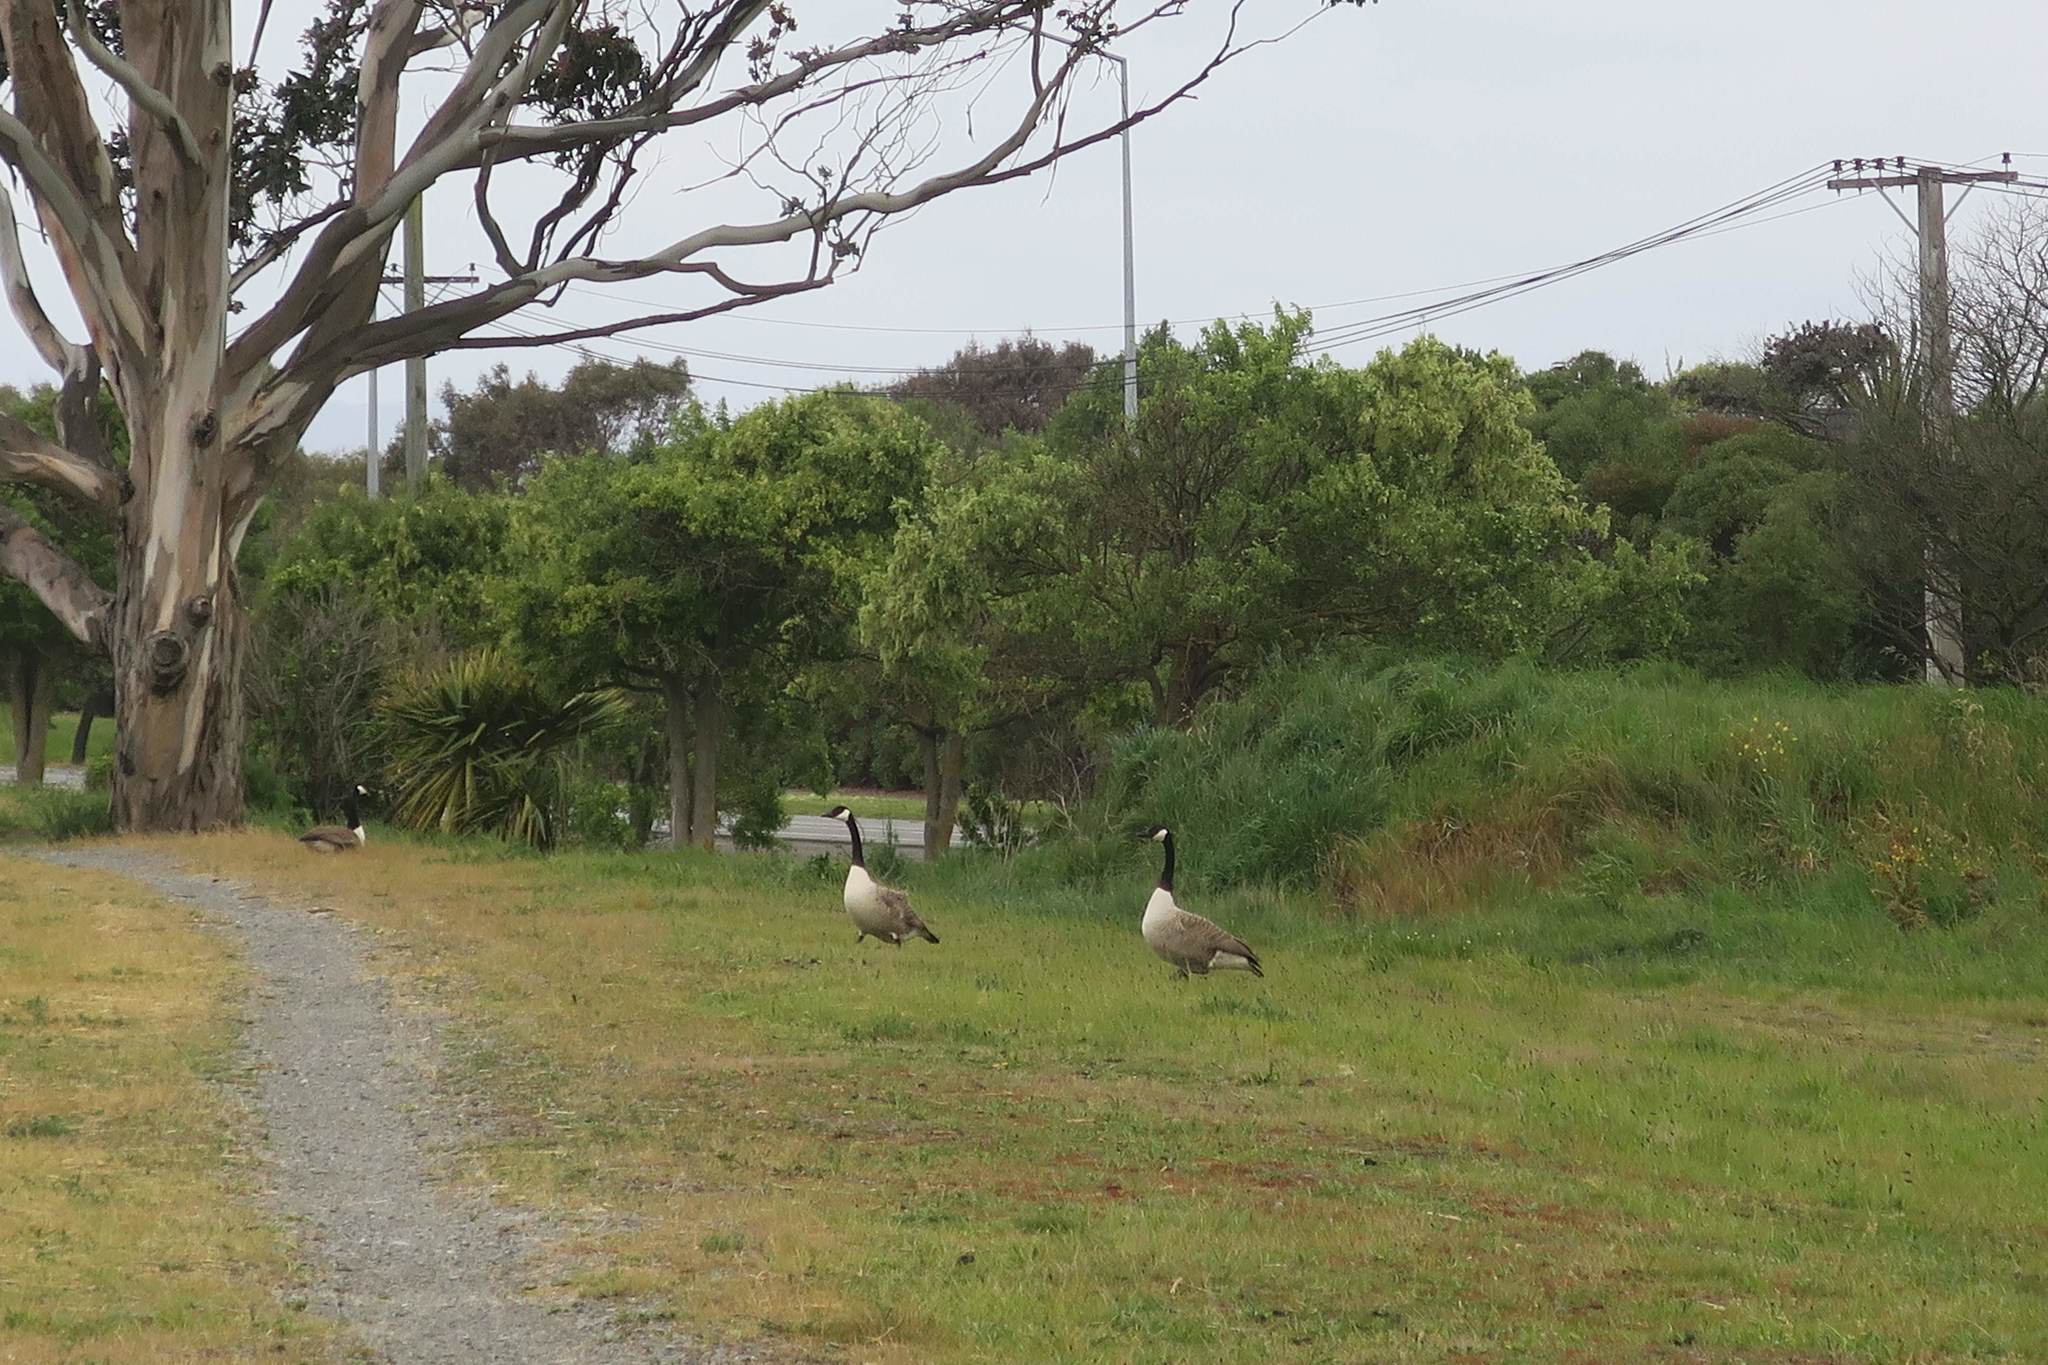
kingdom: Animalia
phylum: Chordata
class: Aves
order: Anseriformes
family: Anatidae
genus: Branta
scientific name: Branta canadensis
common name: Canada goose
